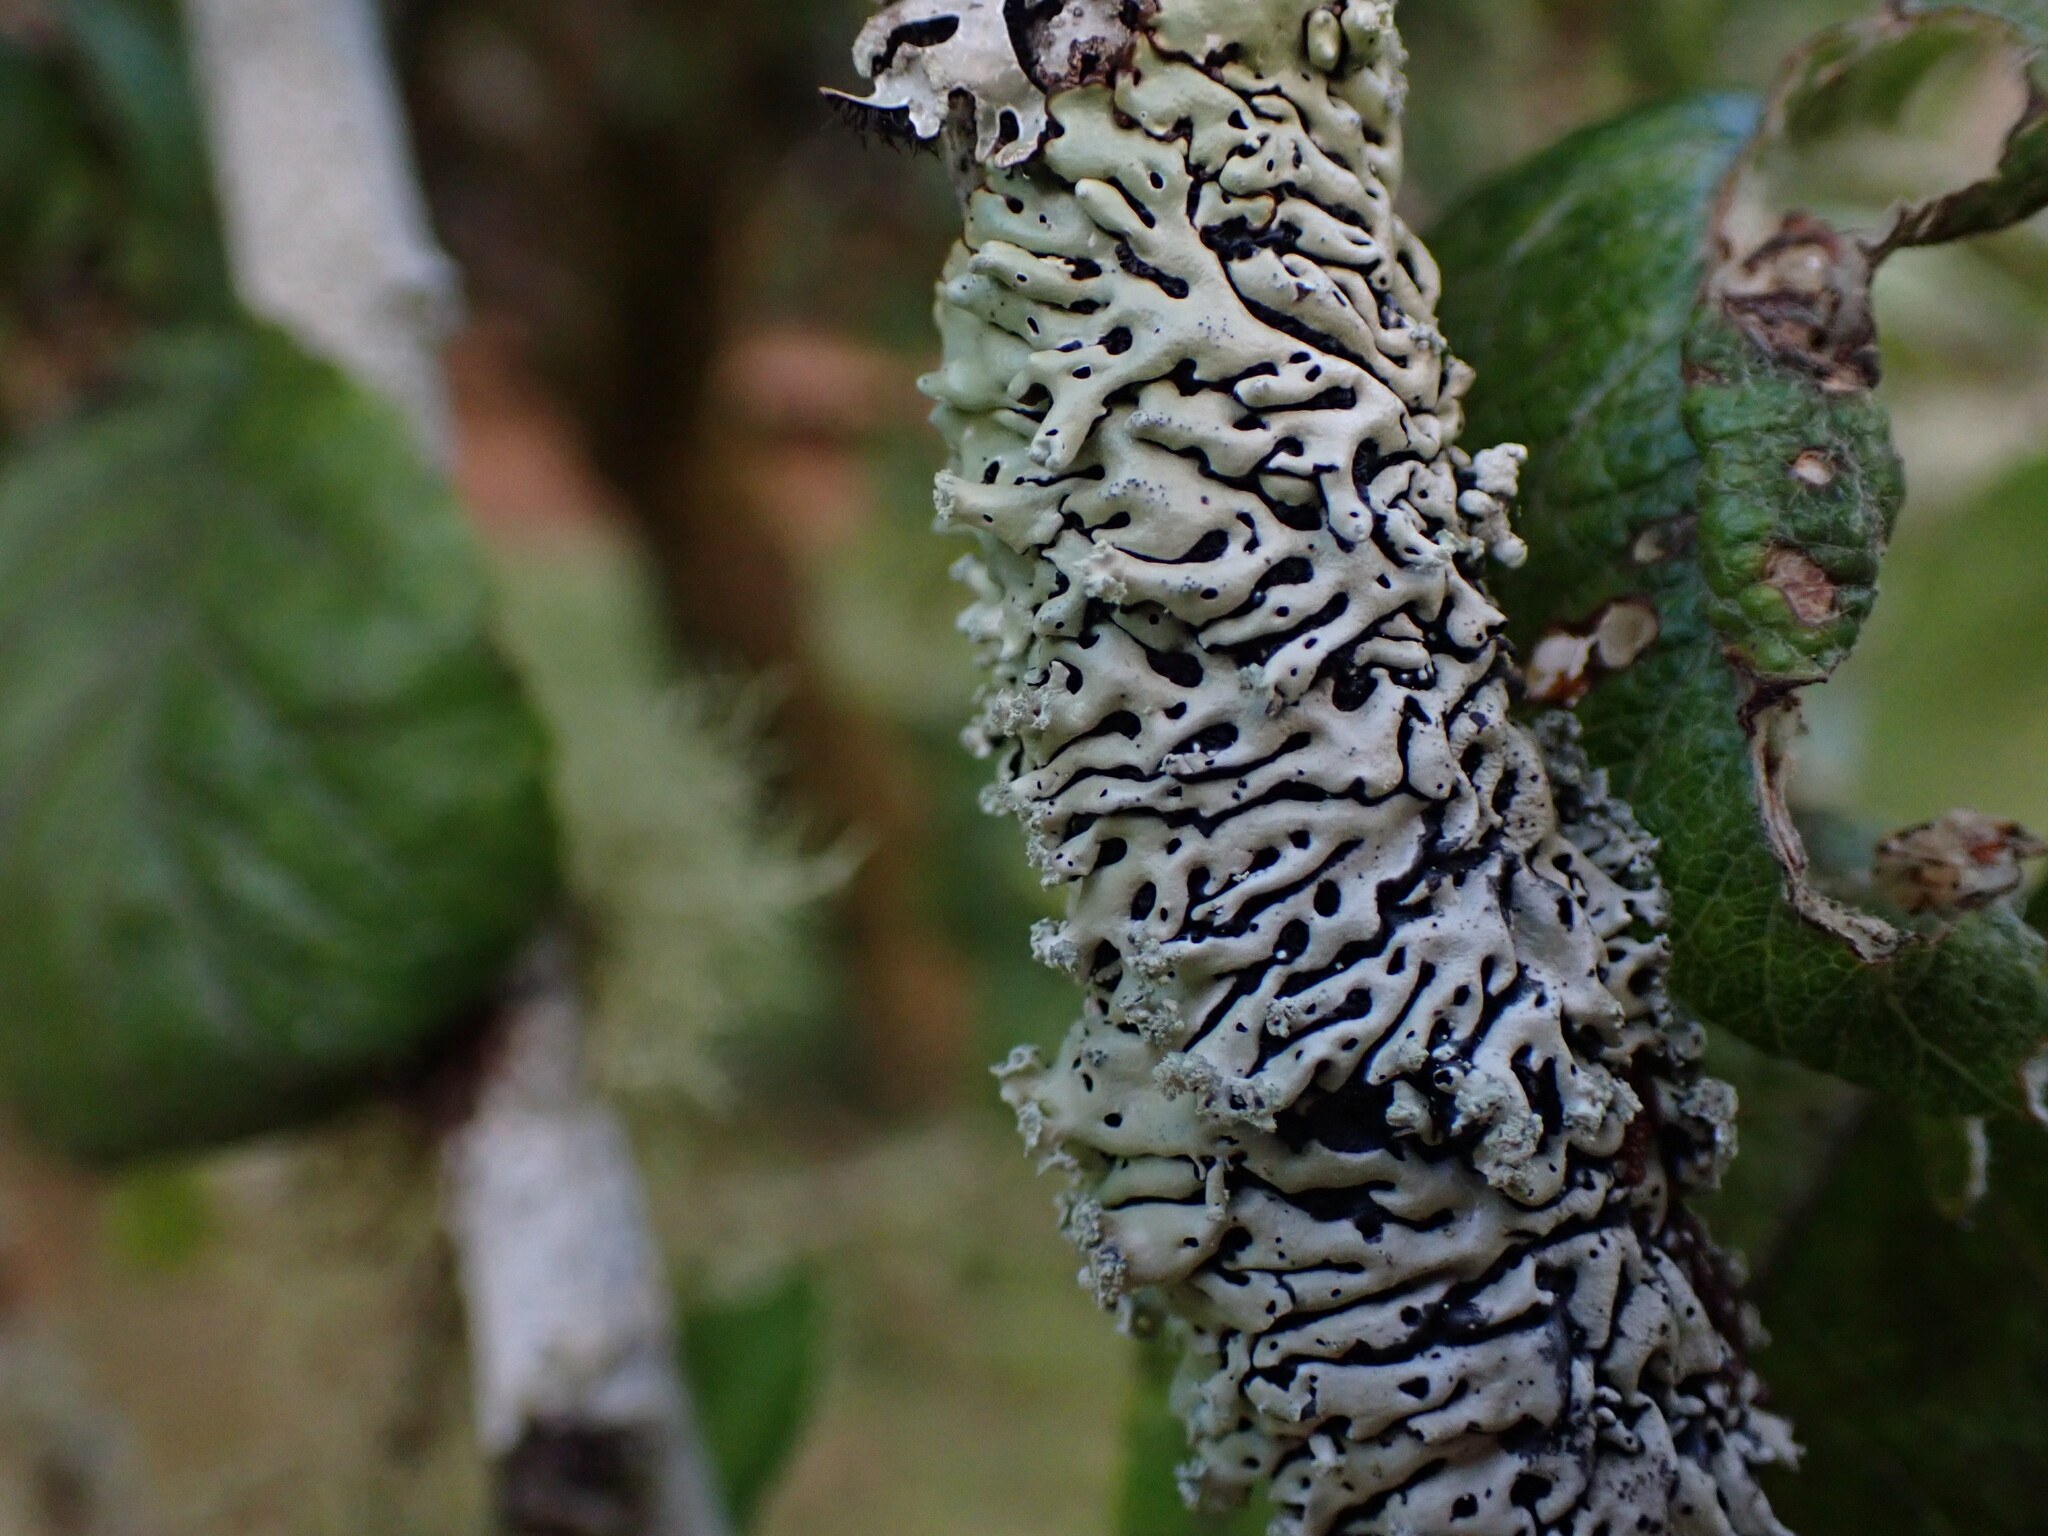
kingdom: Fungi
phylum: Ascomycota
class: Lecanoromycetes
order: Lecanorales
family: Parmeliaceae
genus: Menegazzia
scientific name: Menegazzia subsimilis
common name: Tree flute lichen
